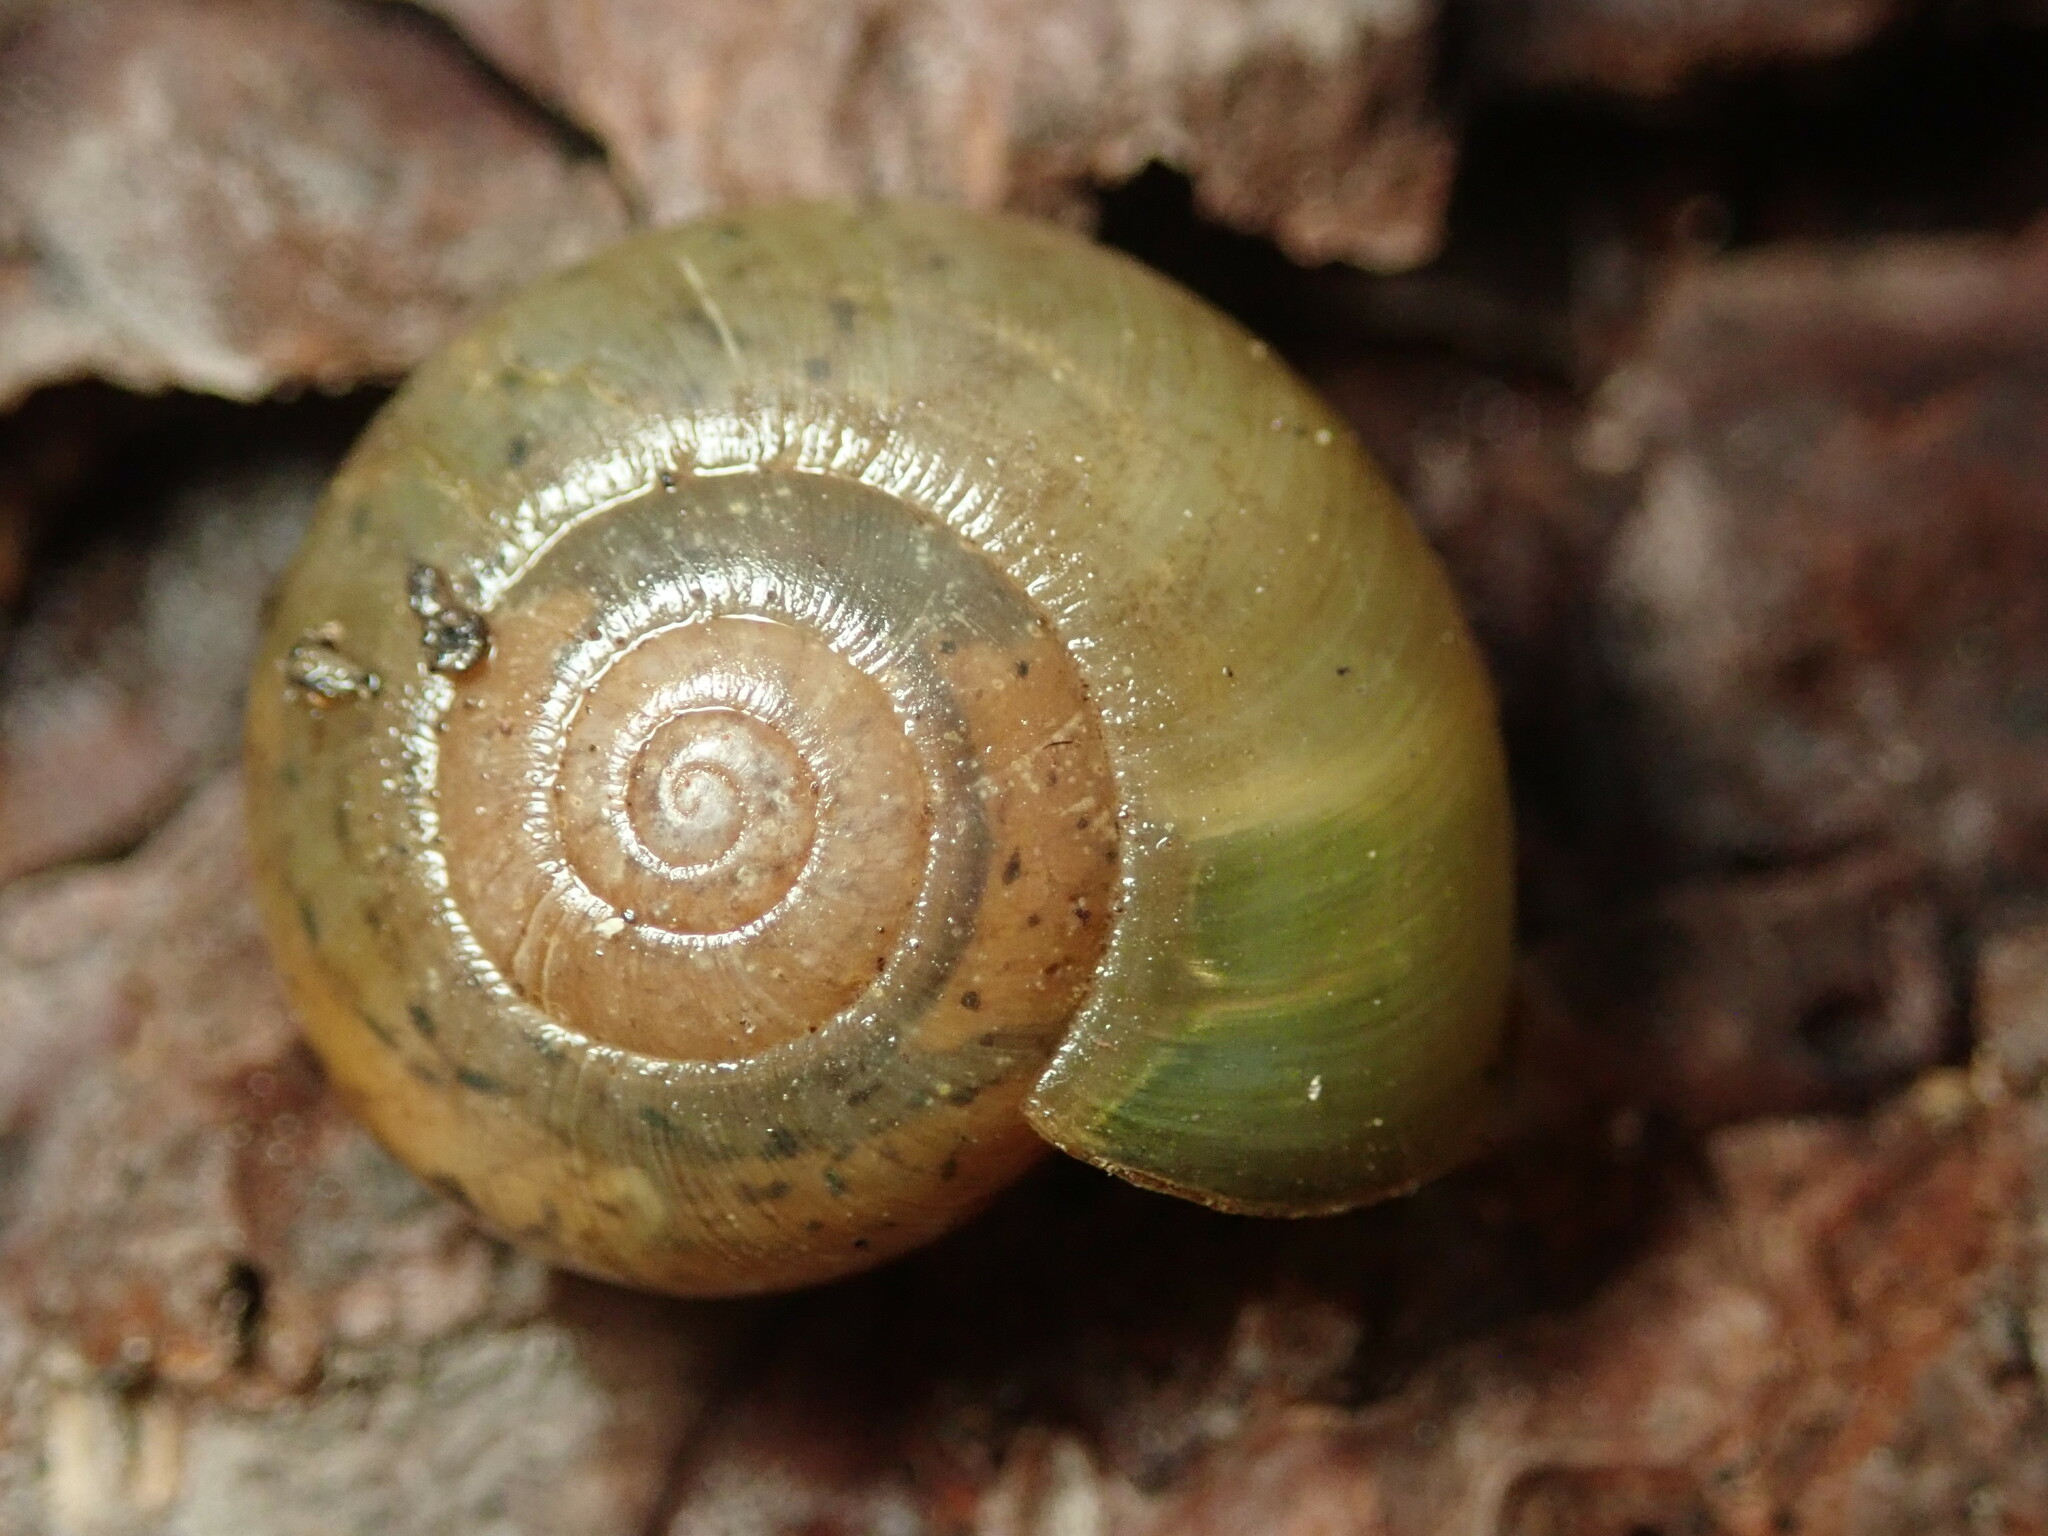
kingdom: Animalia
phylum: Mollusca
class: Gastropoda
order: Stylommatophora
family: Haplotrematidae
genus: Haplotrema
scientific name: Haplotrema minimum
